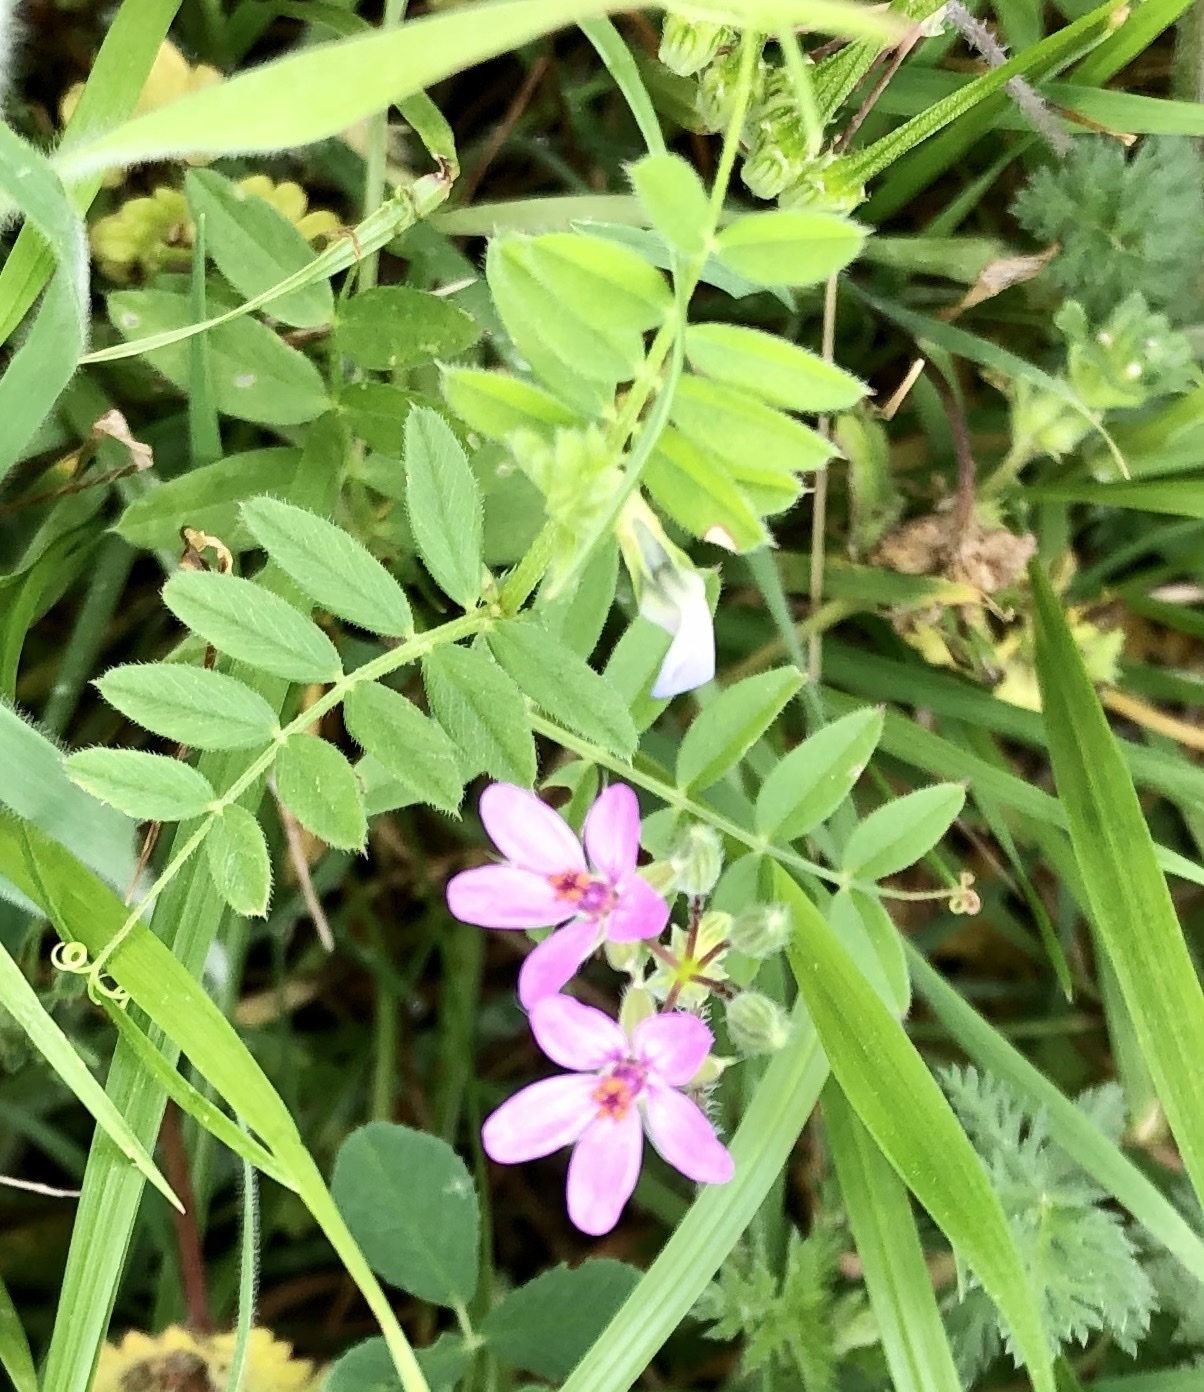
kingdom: Plantae
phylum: Tracheophyta
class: Magnoliopsida
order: Geraniales
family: Geraniaceae
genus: Erodium
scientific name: Erodium cicutarium
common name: Common stork's-bill
